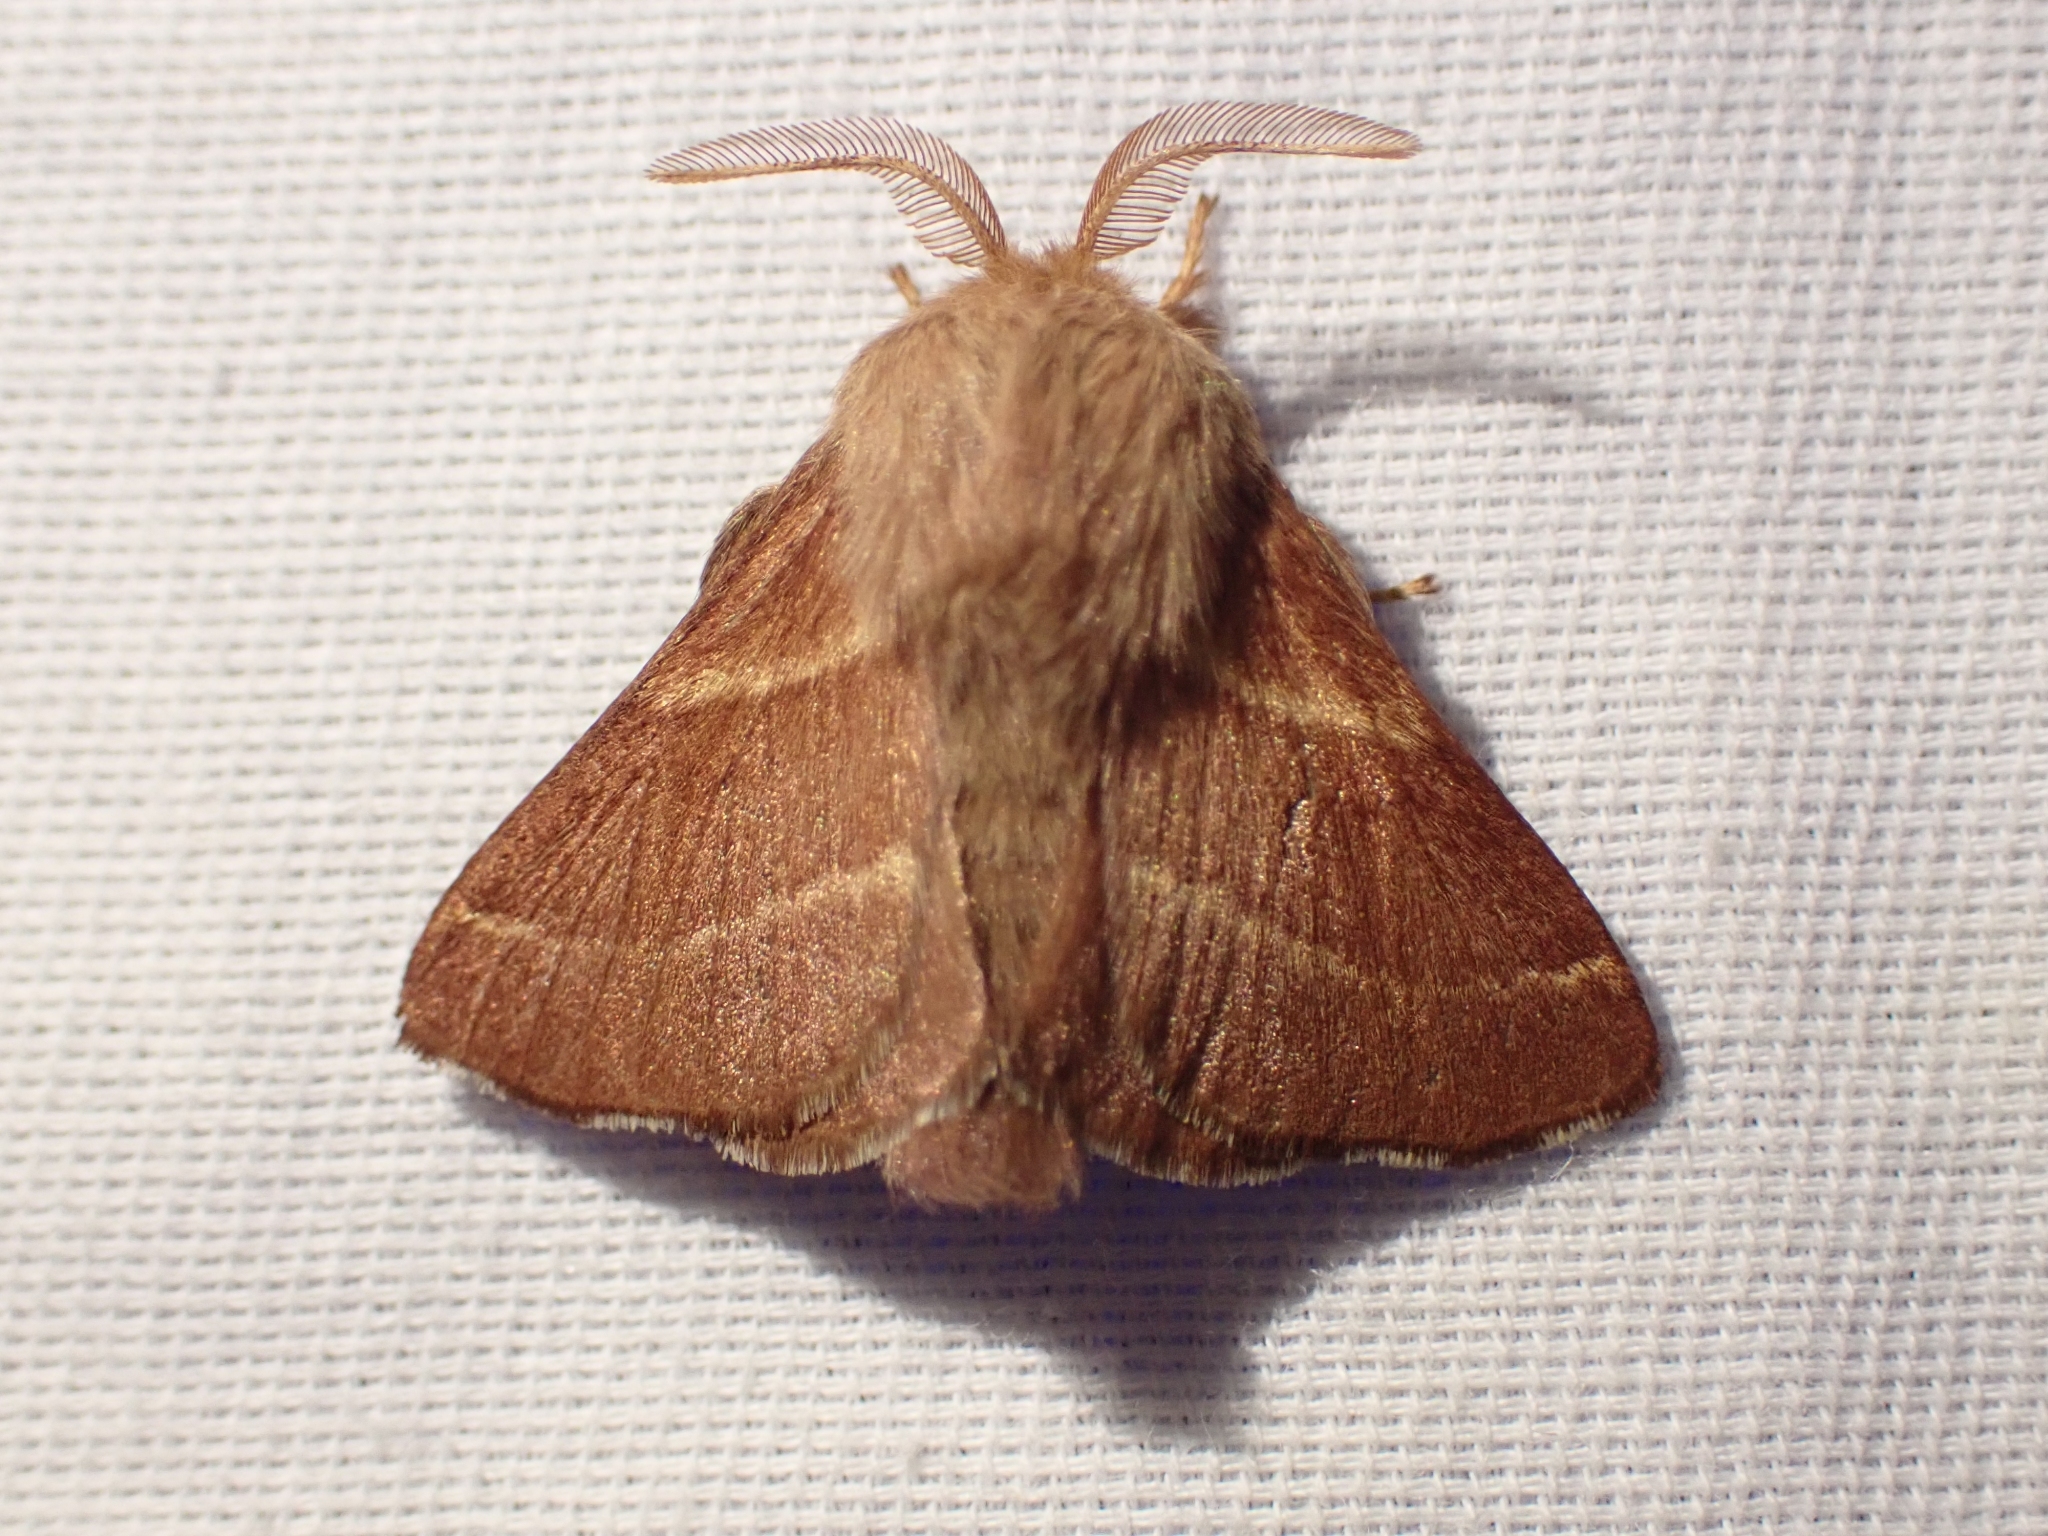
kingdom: Animalia
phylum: Arthropoda
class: Insecta
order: Lepidoptera
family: Lasiocampidae
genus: Malacosoma
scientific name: Malacosoma californica
